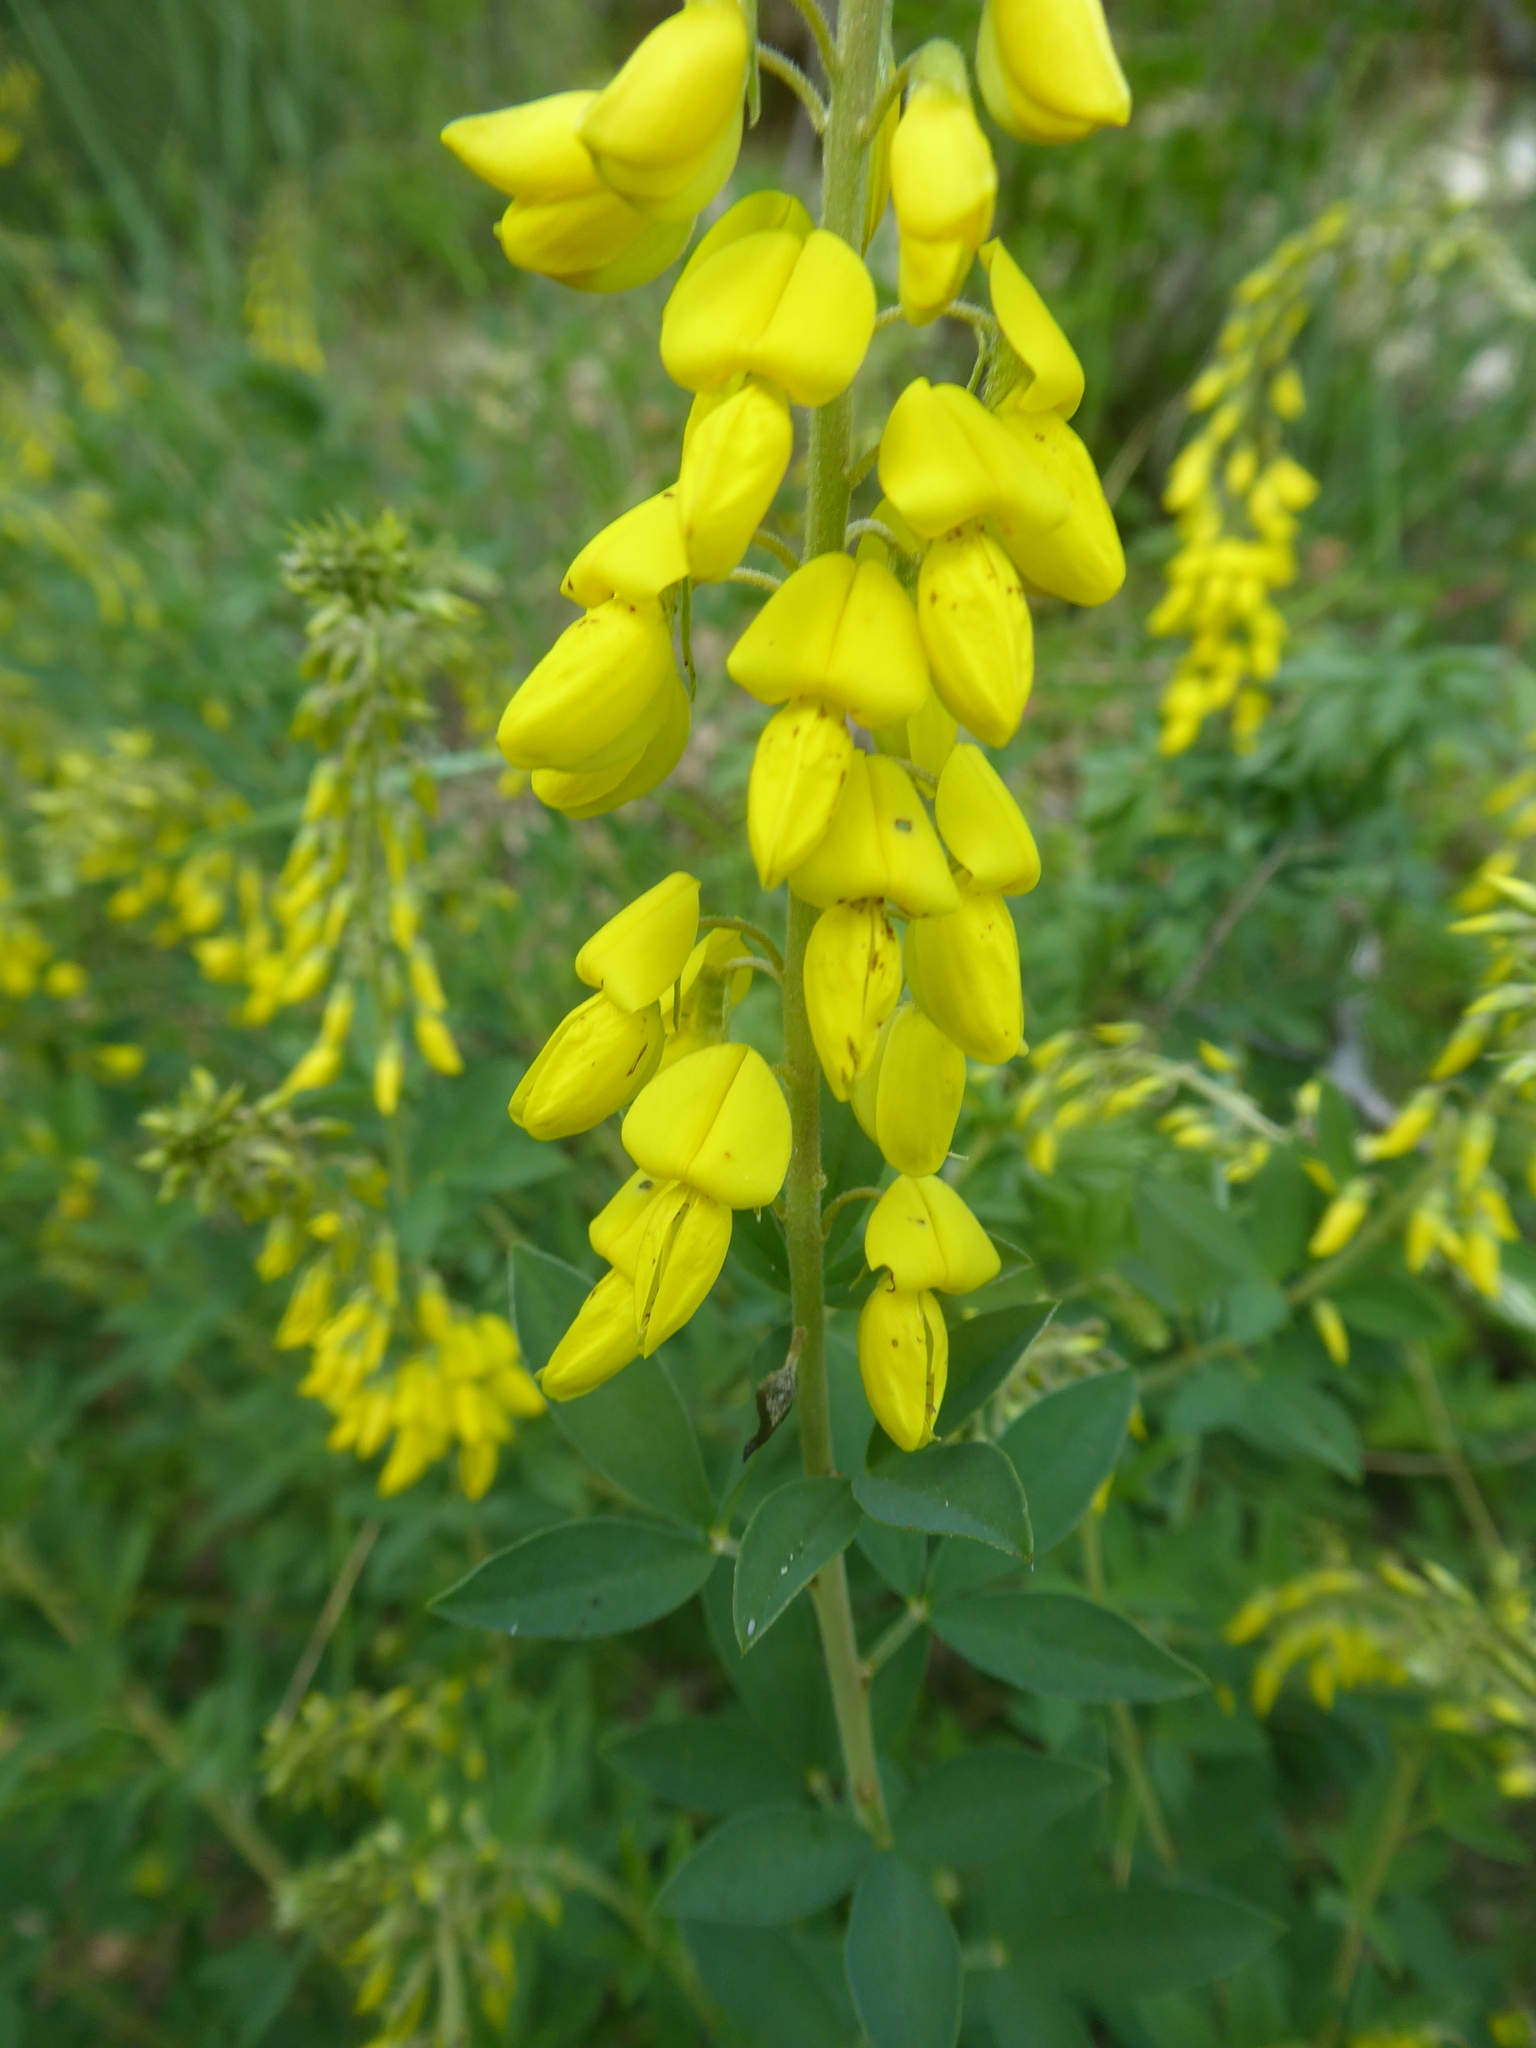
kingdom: Plantae
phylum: Tracheophyta
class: Magnoliopsida
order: Fabales
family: Fabaceae
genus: Cytisus
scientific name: Cytisus nigricans
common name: Black broom
